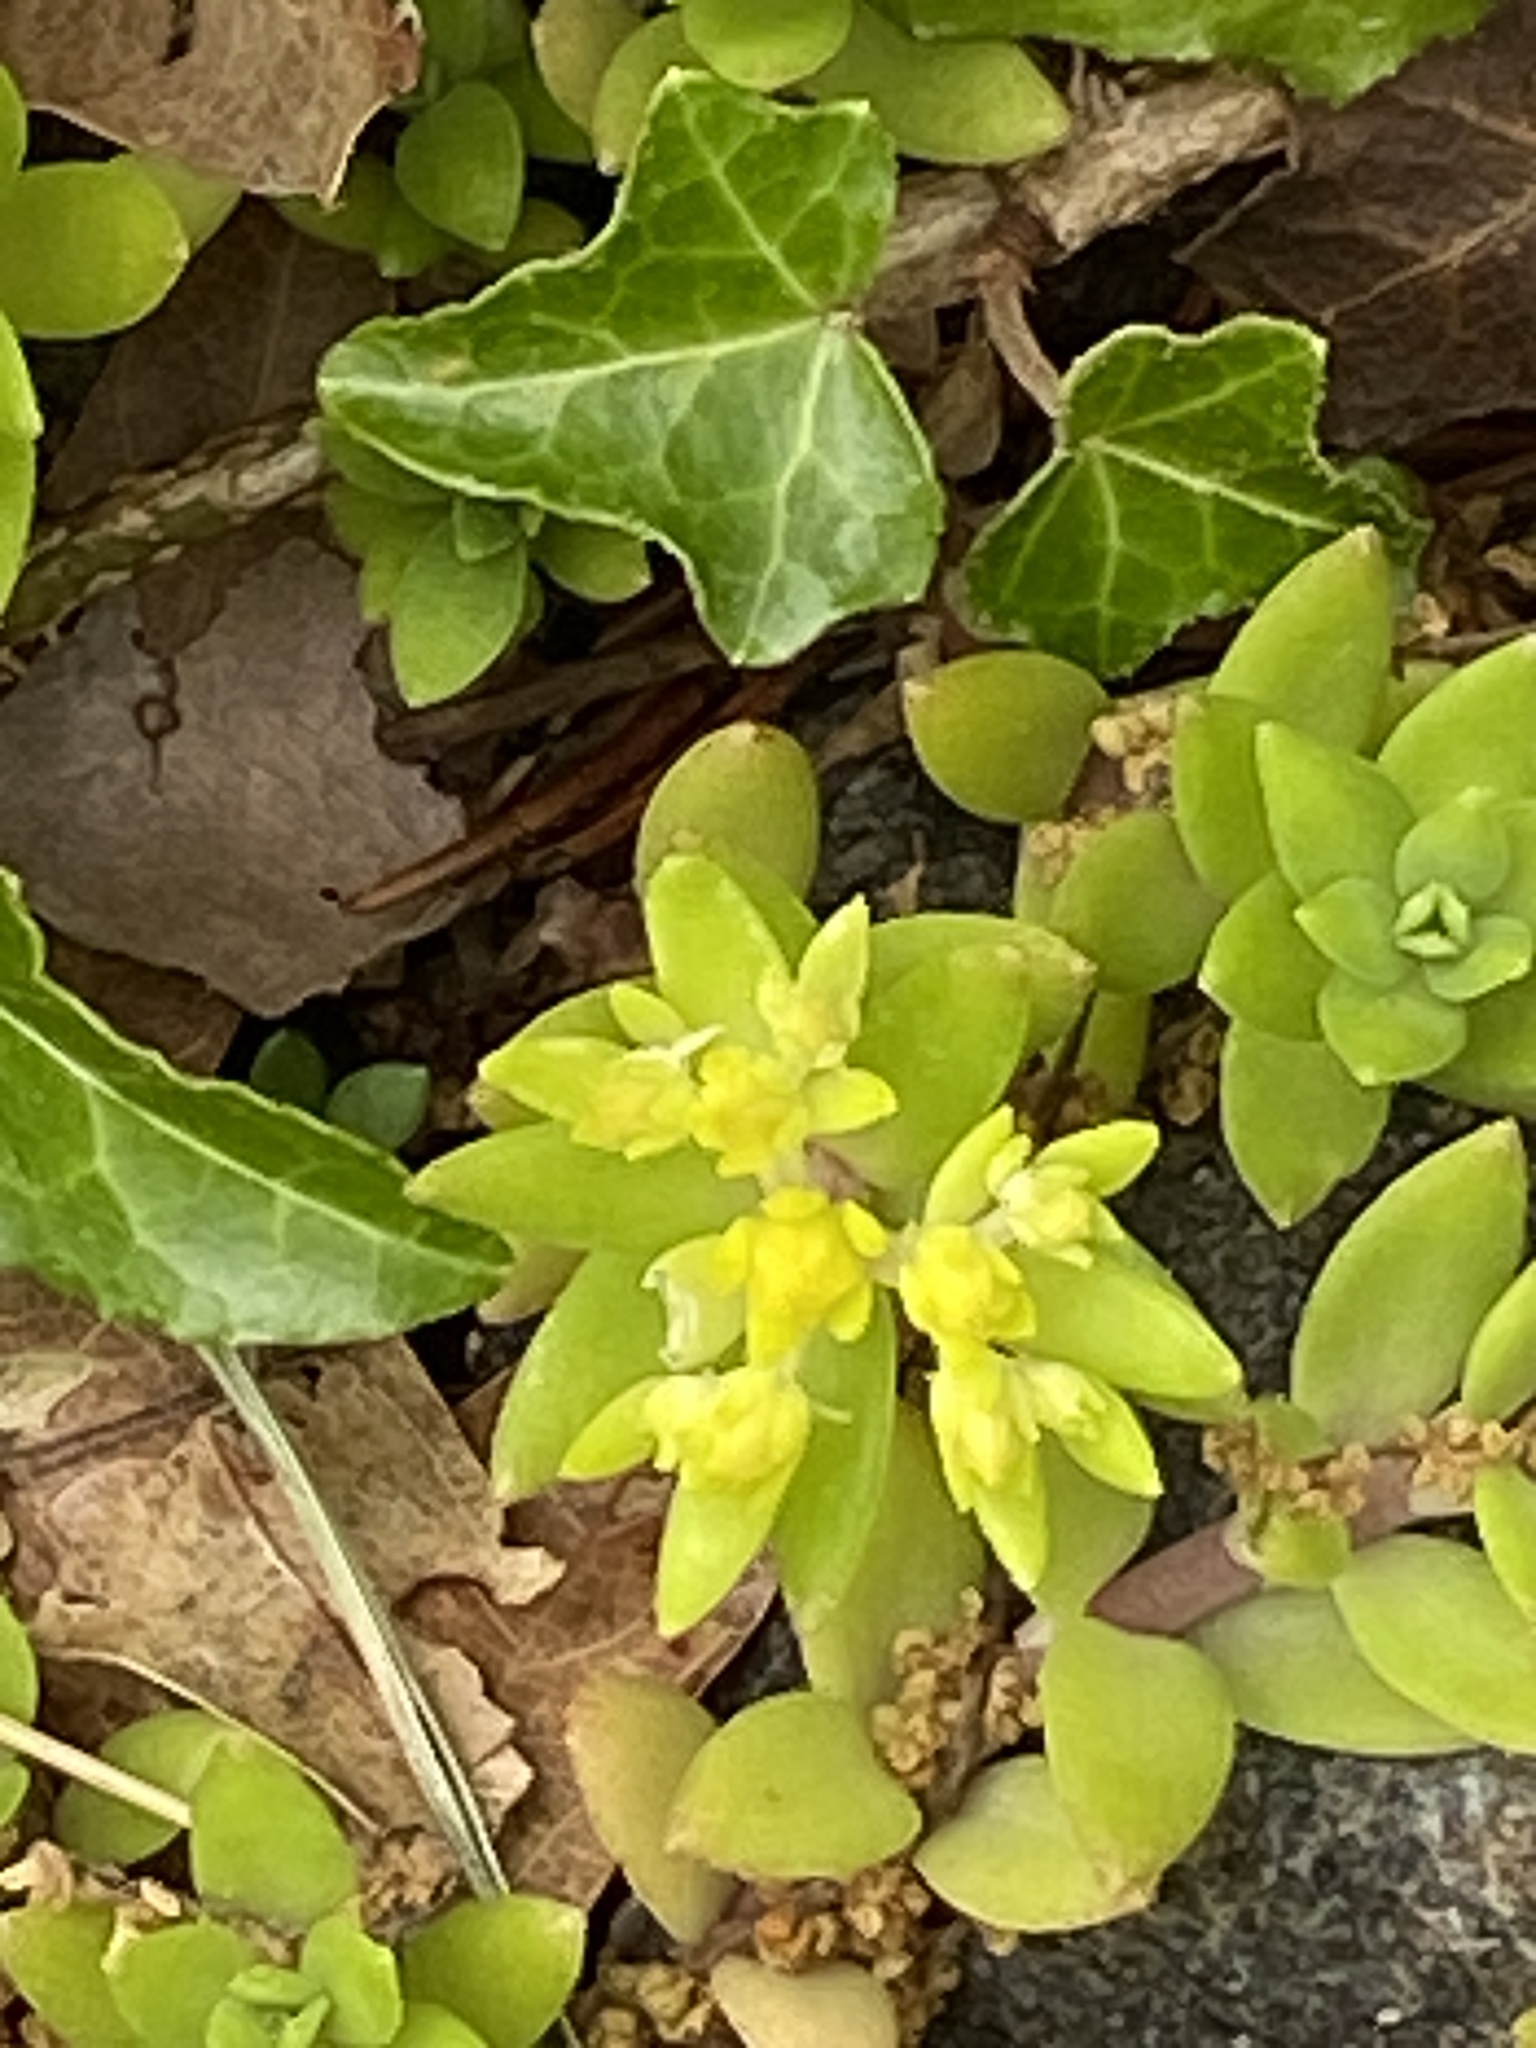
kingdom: Plantae
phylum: Tracheophyta
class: Magnoliopsida
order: Saxifragales
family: Crassulaceae
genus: Sedum
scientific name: Sedum sarmentosum
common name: Stringy stonecrop
